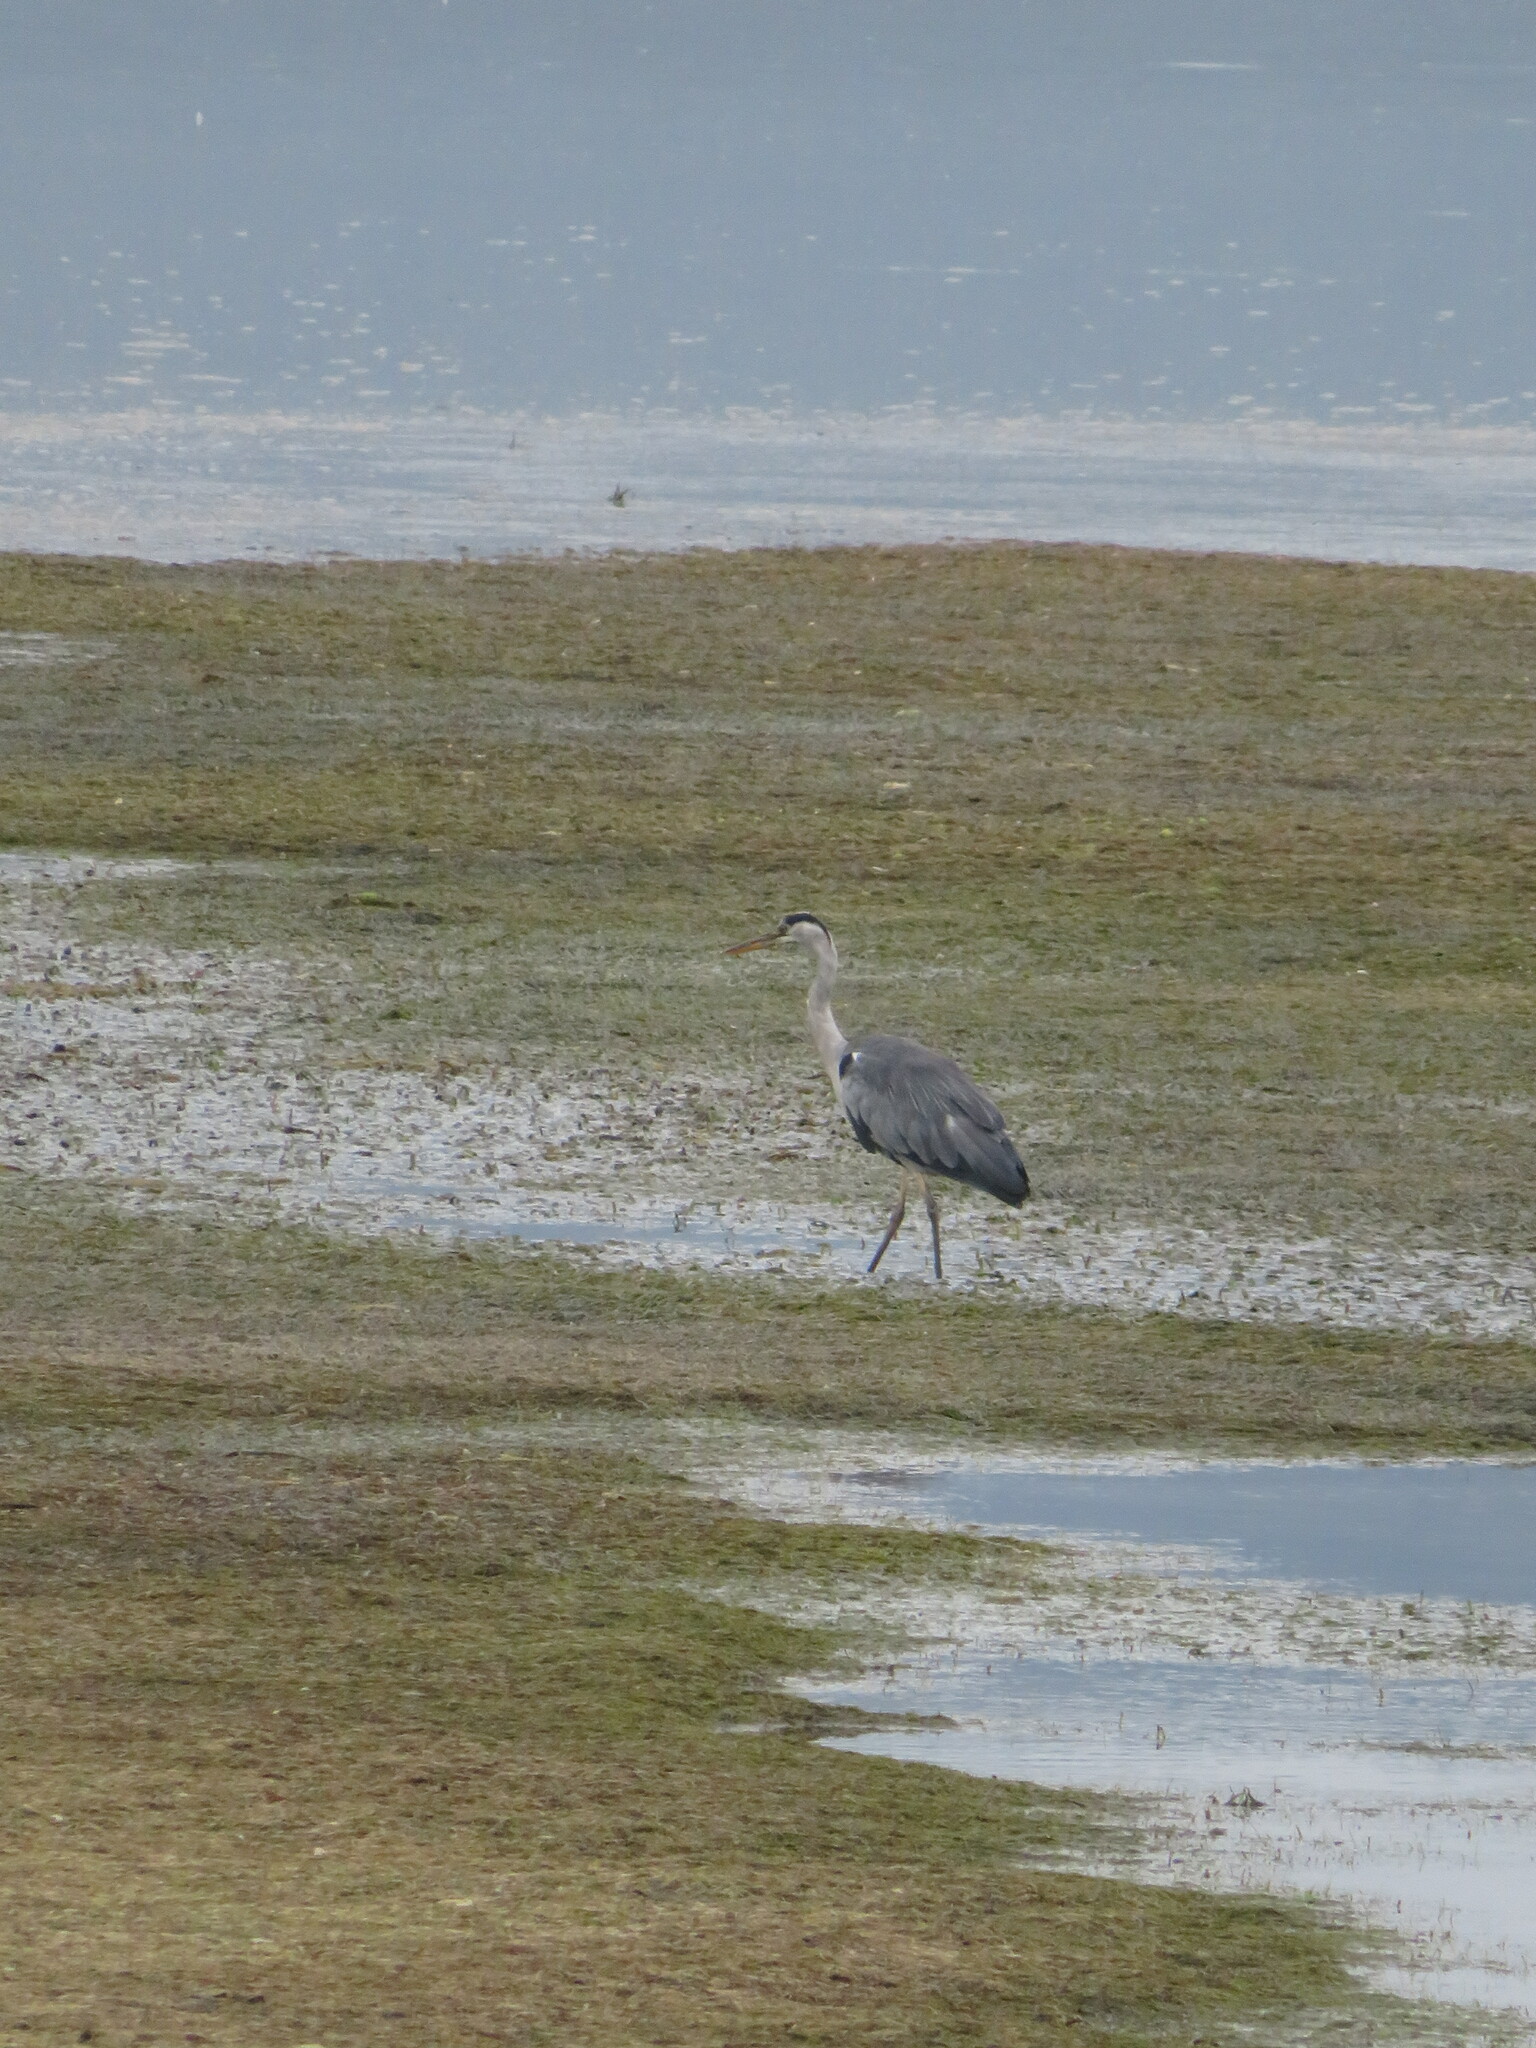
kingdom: Animalia
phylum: Chordata
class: Aves
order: Pelecaniformes
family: Ardeidae
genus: Ardea
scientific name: Ardea cinerea
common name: Grey heron
